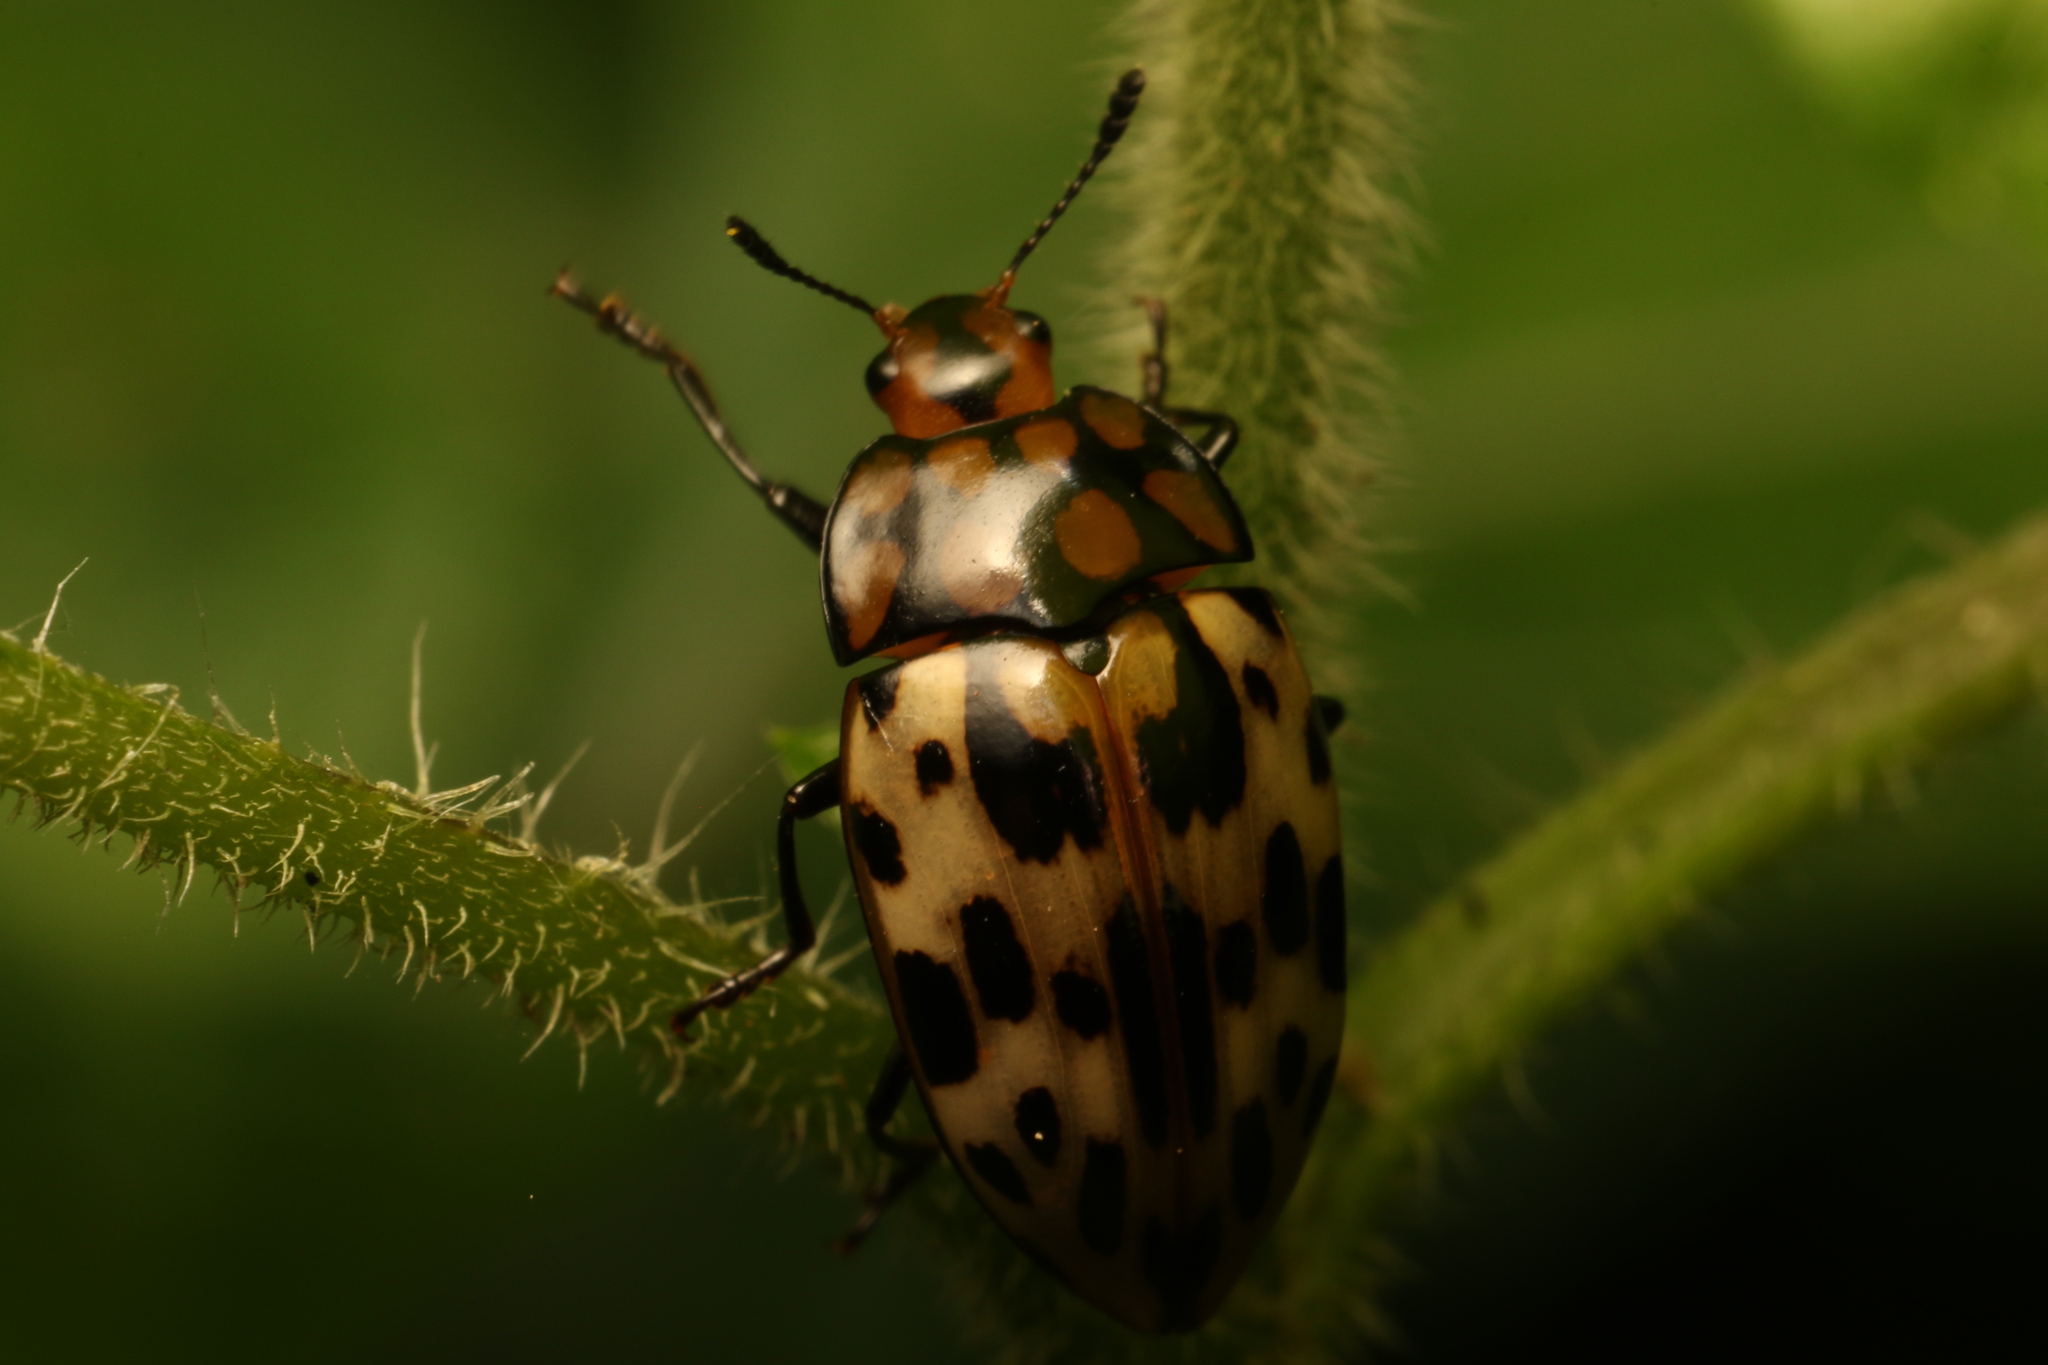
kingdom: Animalia
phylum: Arthropoda
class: Insecta
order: Coleoptera
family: Erotylidae
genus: Iphiclus
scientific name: Iphiclus
